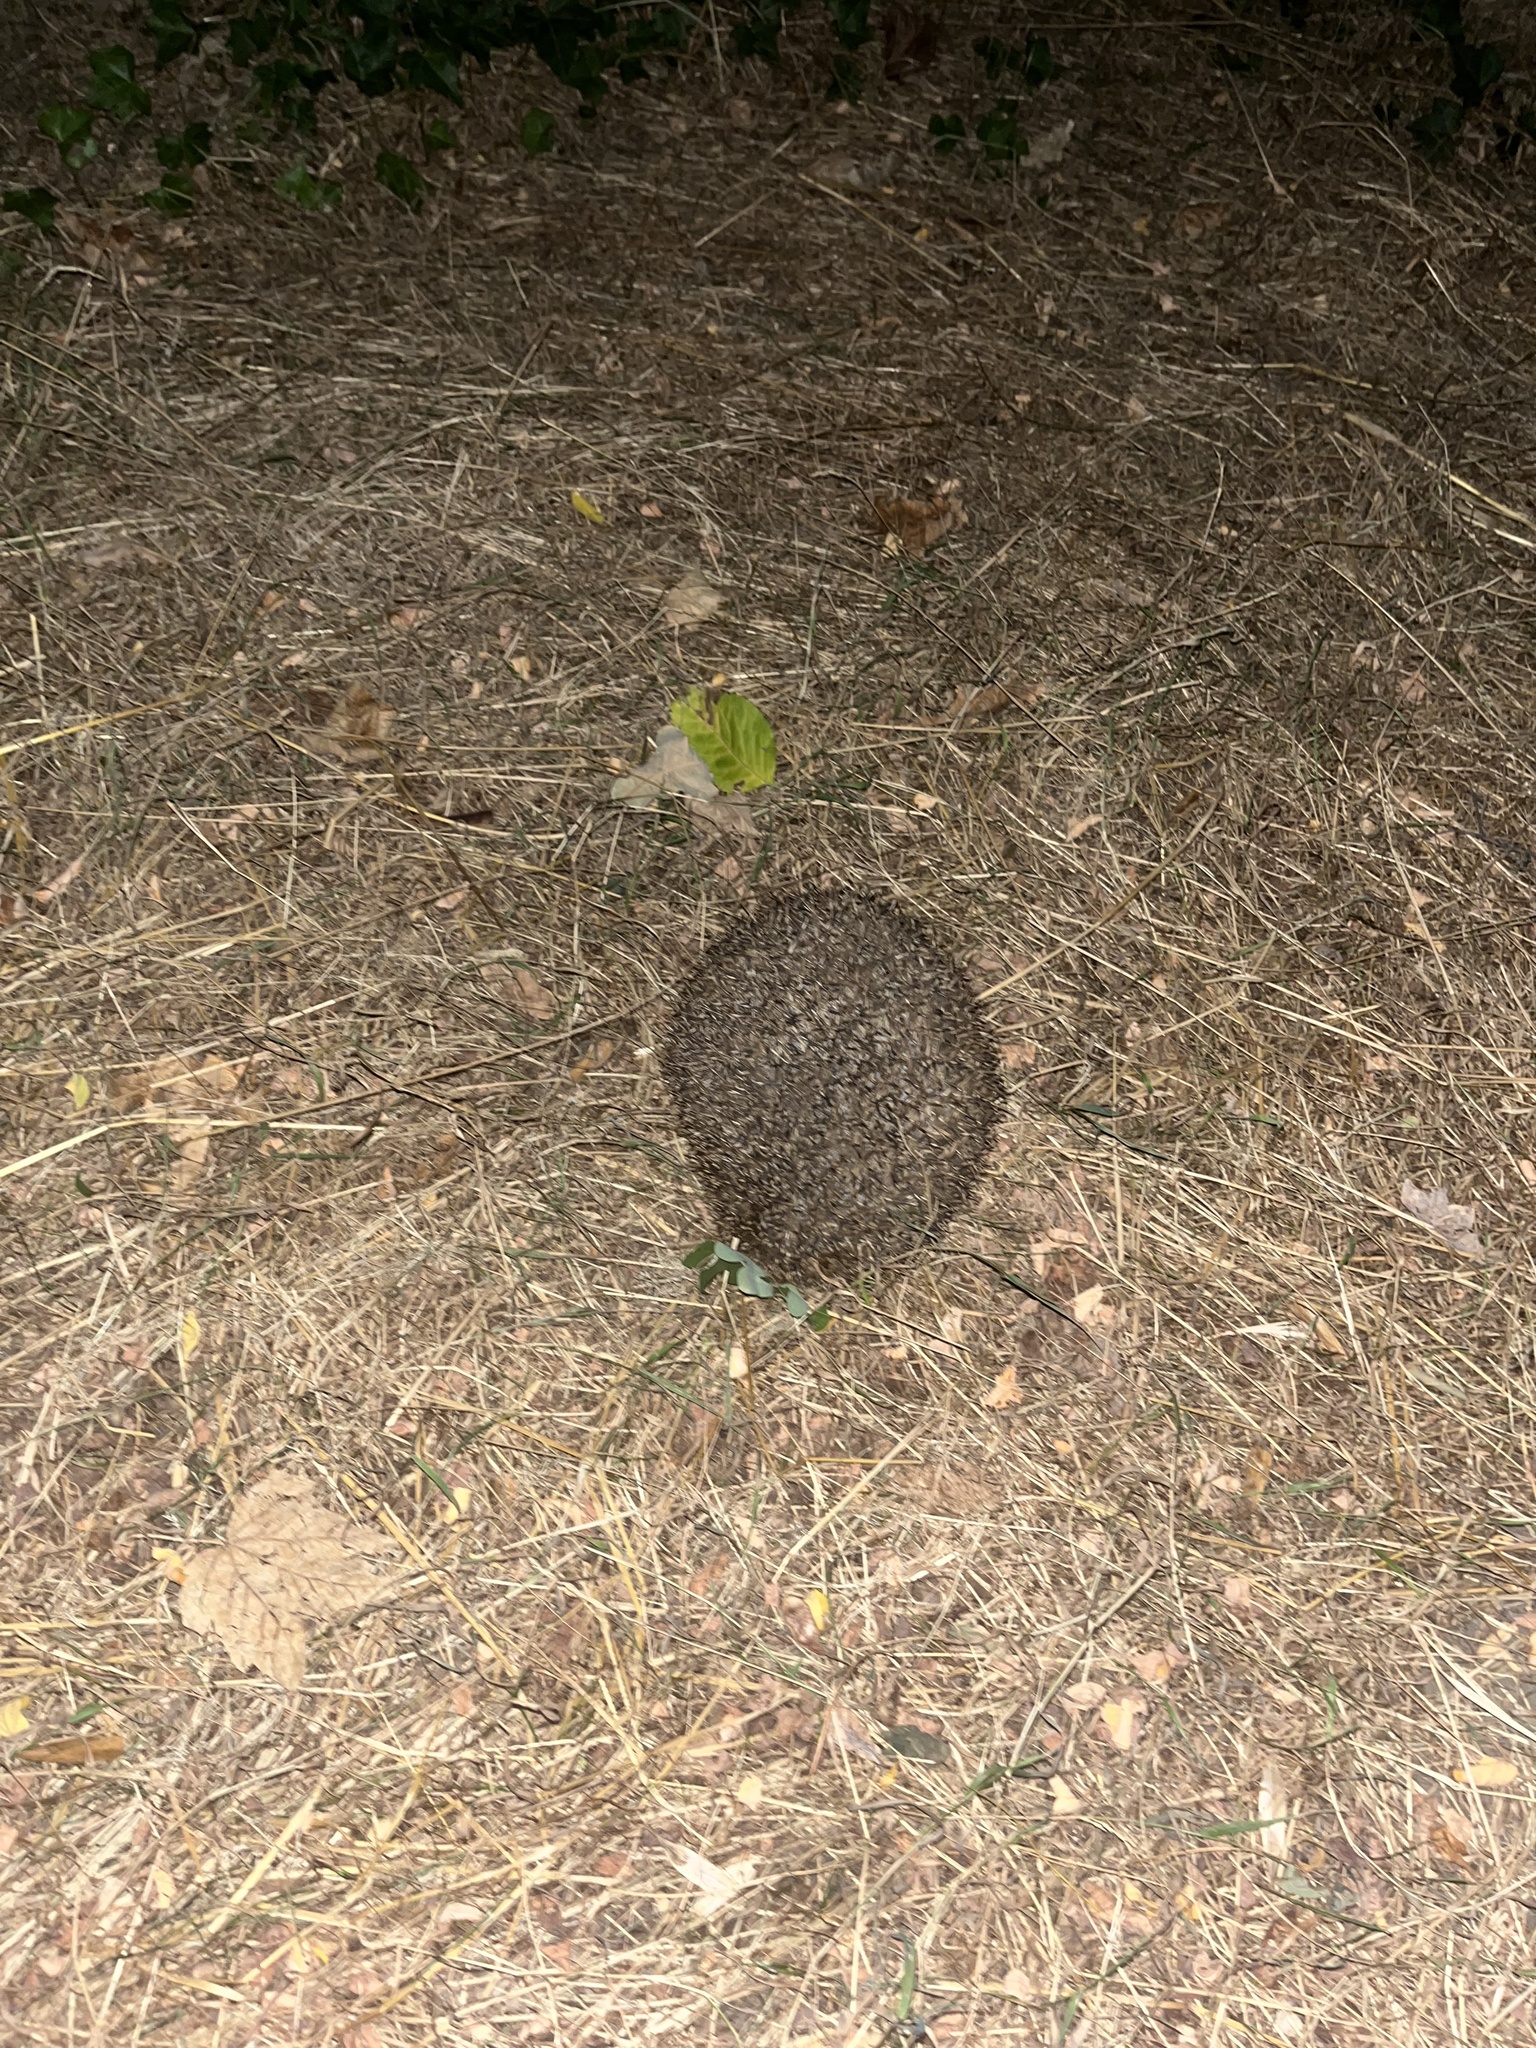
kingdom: Animalia
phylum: Chordata
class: Mammalia
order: Erinaceomorpha
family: Erinaceidae
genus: Erinaceus
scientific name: Erinaceus europaeus
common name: West european hedgehog
